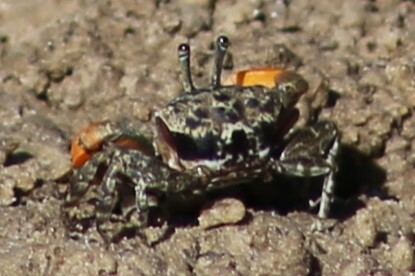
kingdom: Animalia
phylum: Arthropoda
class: Malacostraca
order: Decapoda
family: Heloeciidae
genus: Heloecius
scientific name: Heloecius cordiformis
